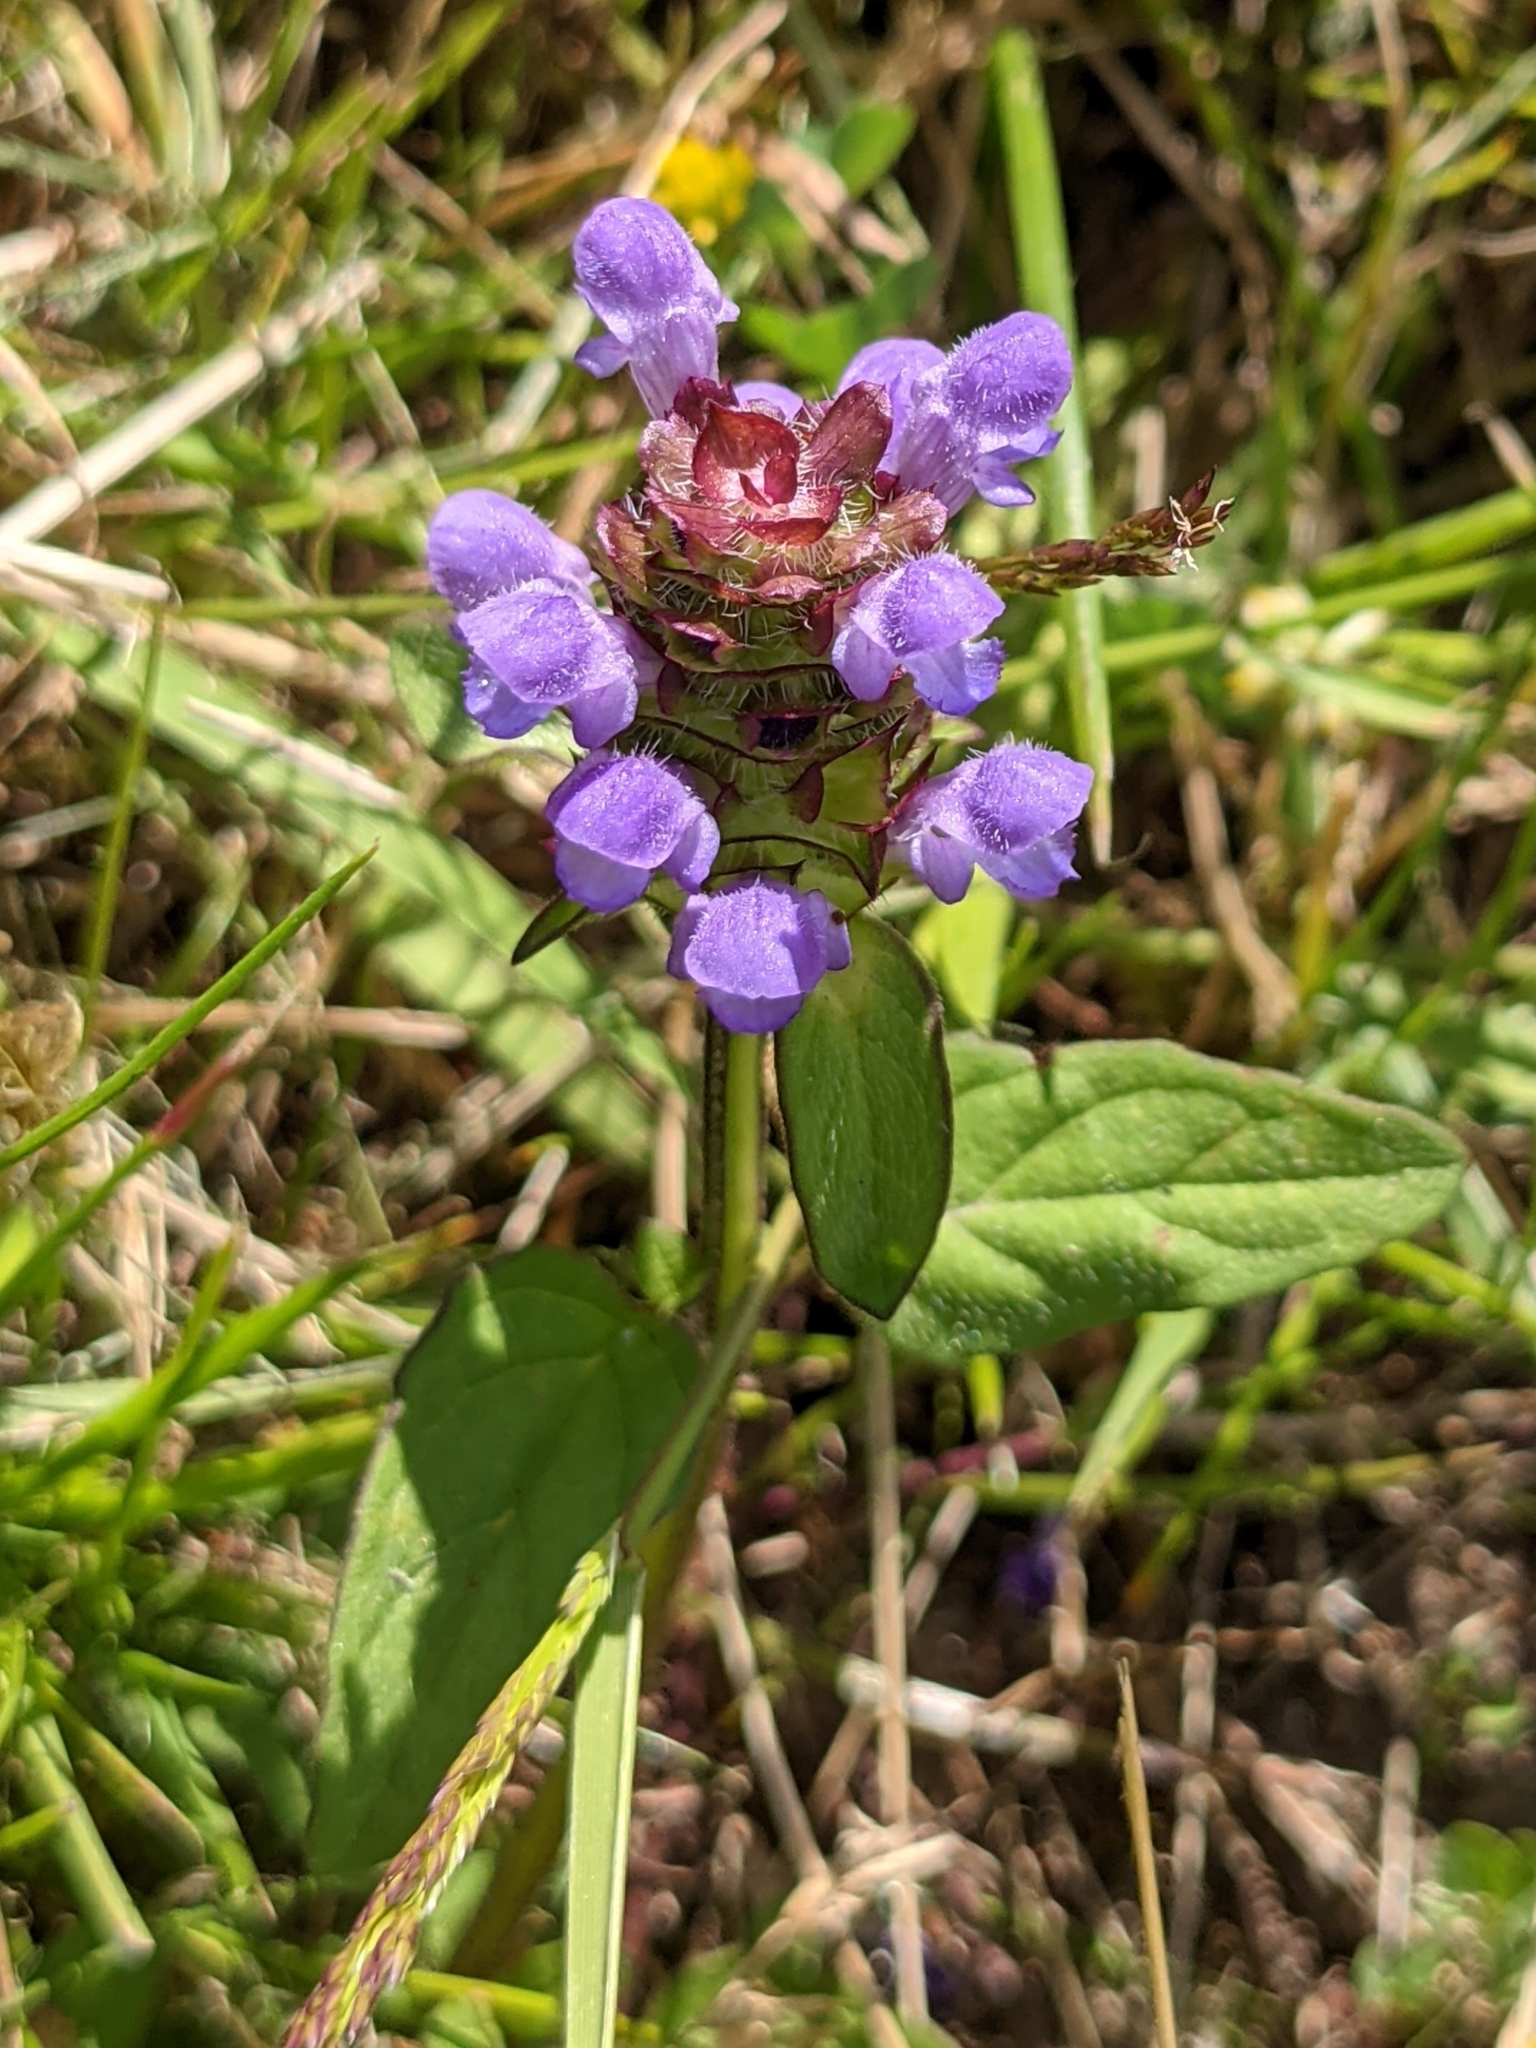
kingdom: Plantae
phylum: Tracheophyta
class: Magnoliopsida
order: Lamiales
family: Lamiaceae
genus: Prunella
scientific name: Prunella vulgaris
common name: Heal-all
